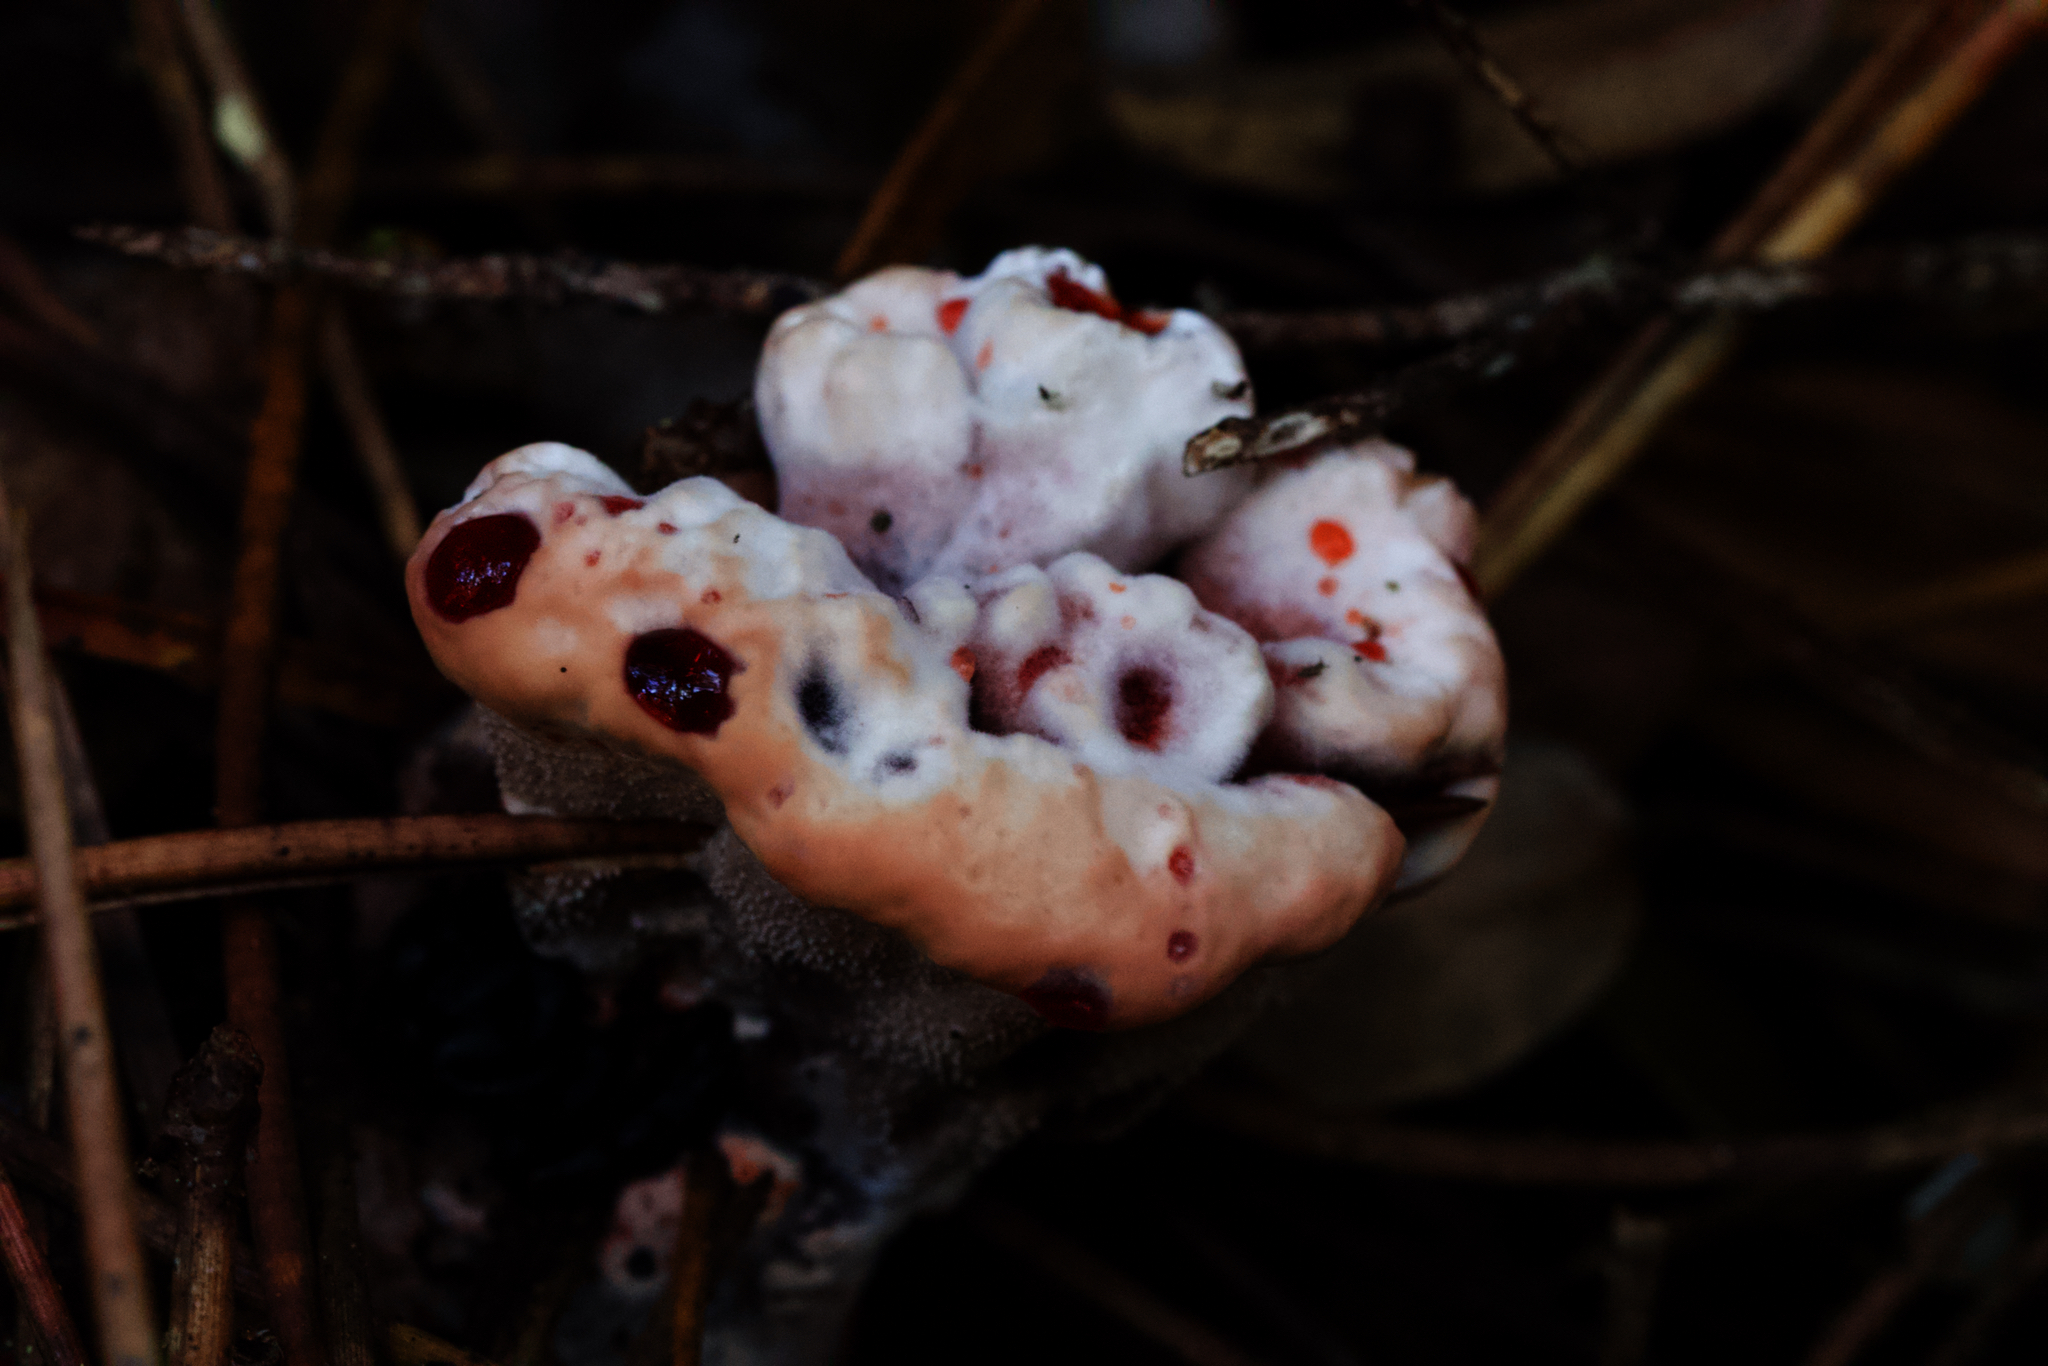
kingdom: Fungi
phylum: Basidiomycota
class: Agaricomycetes
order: Thelephorales
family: Bankeraceae
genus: Hydnellum
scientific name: Hydnellum peckii
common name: Devil's tooth
